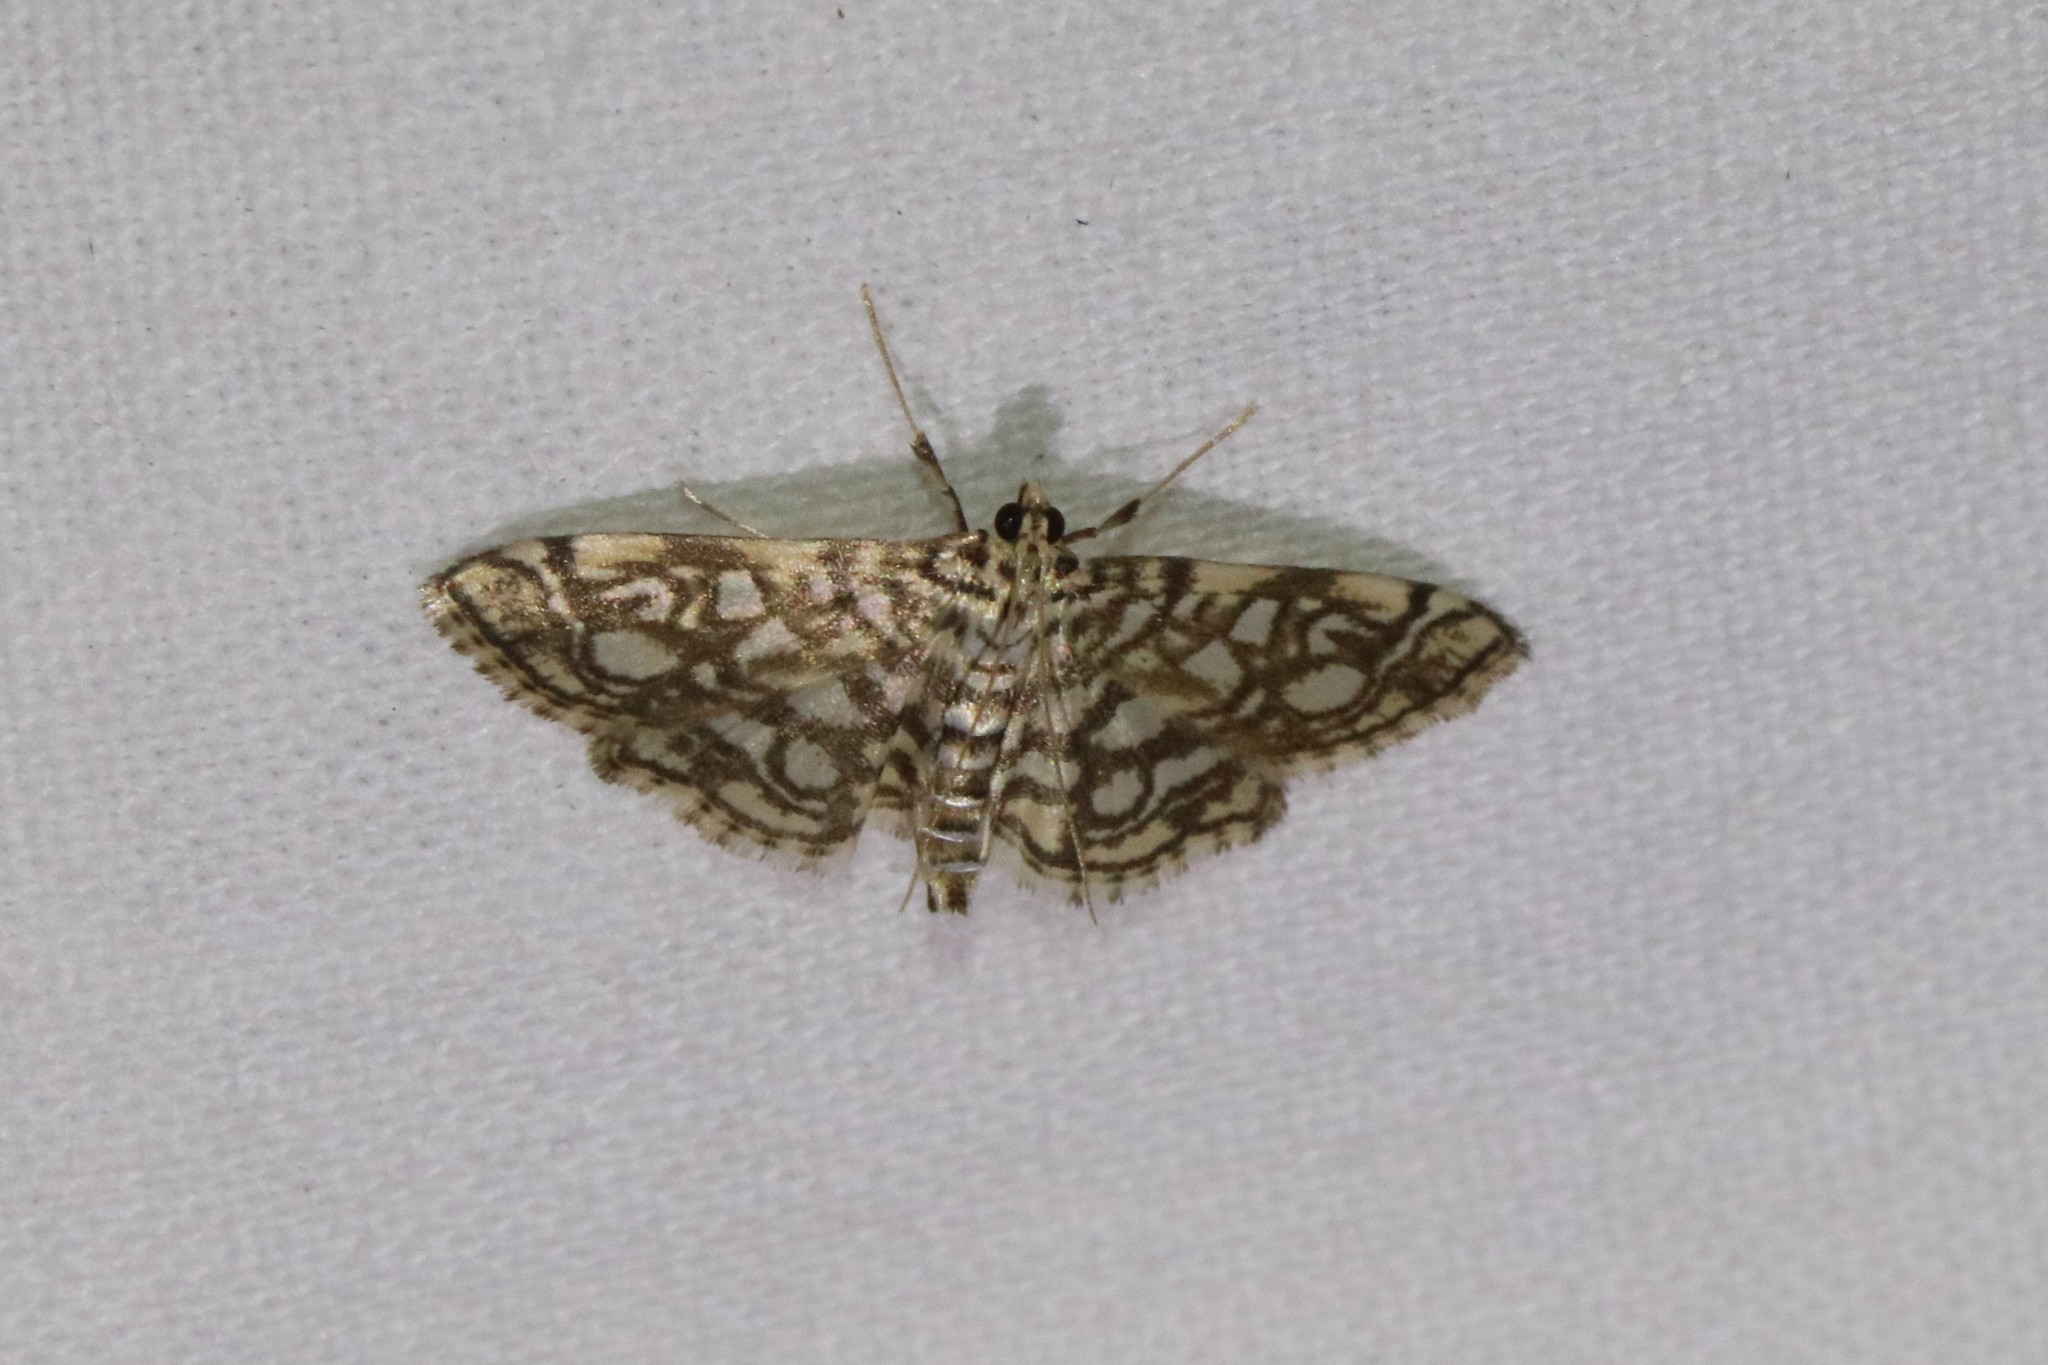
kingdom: Animalia
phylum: Arthropoda
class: Insecta
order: Lepidoptera
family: Crambidae
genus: Lygropia
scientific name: Lygropia rivulalis
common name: Bog lygropia moth
